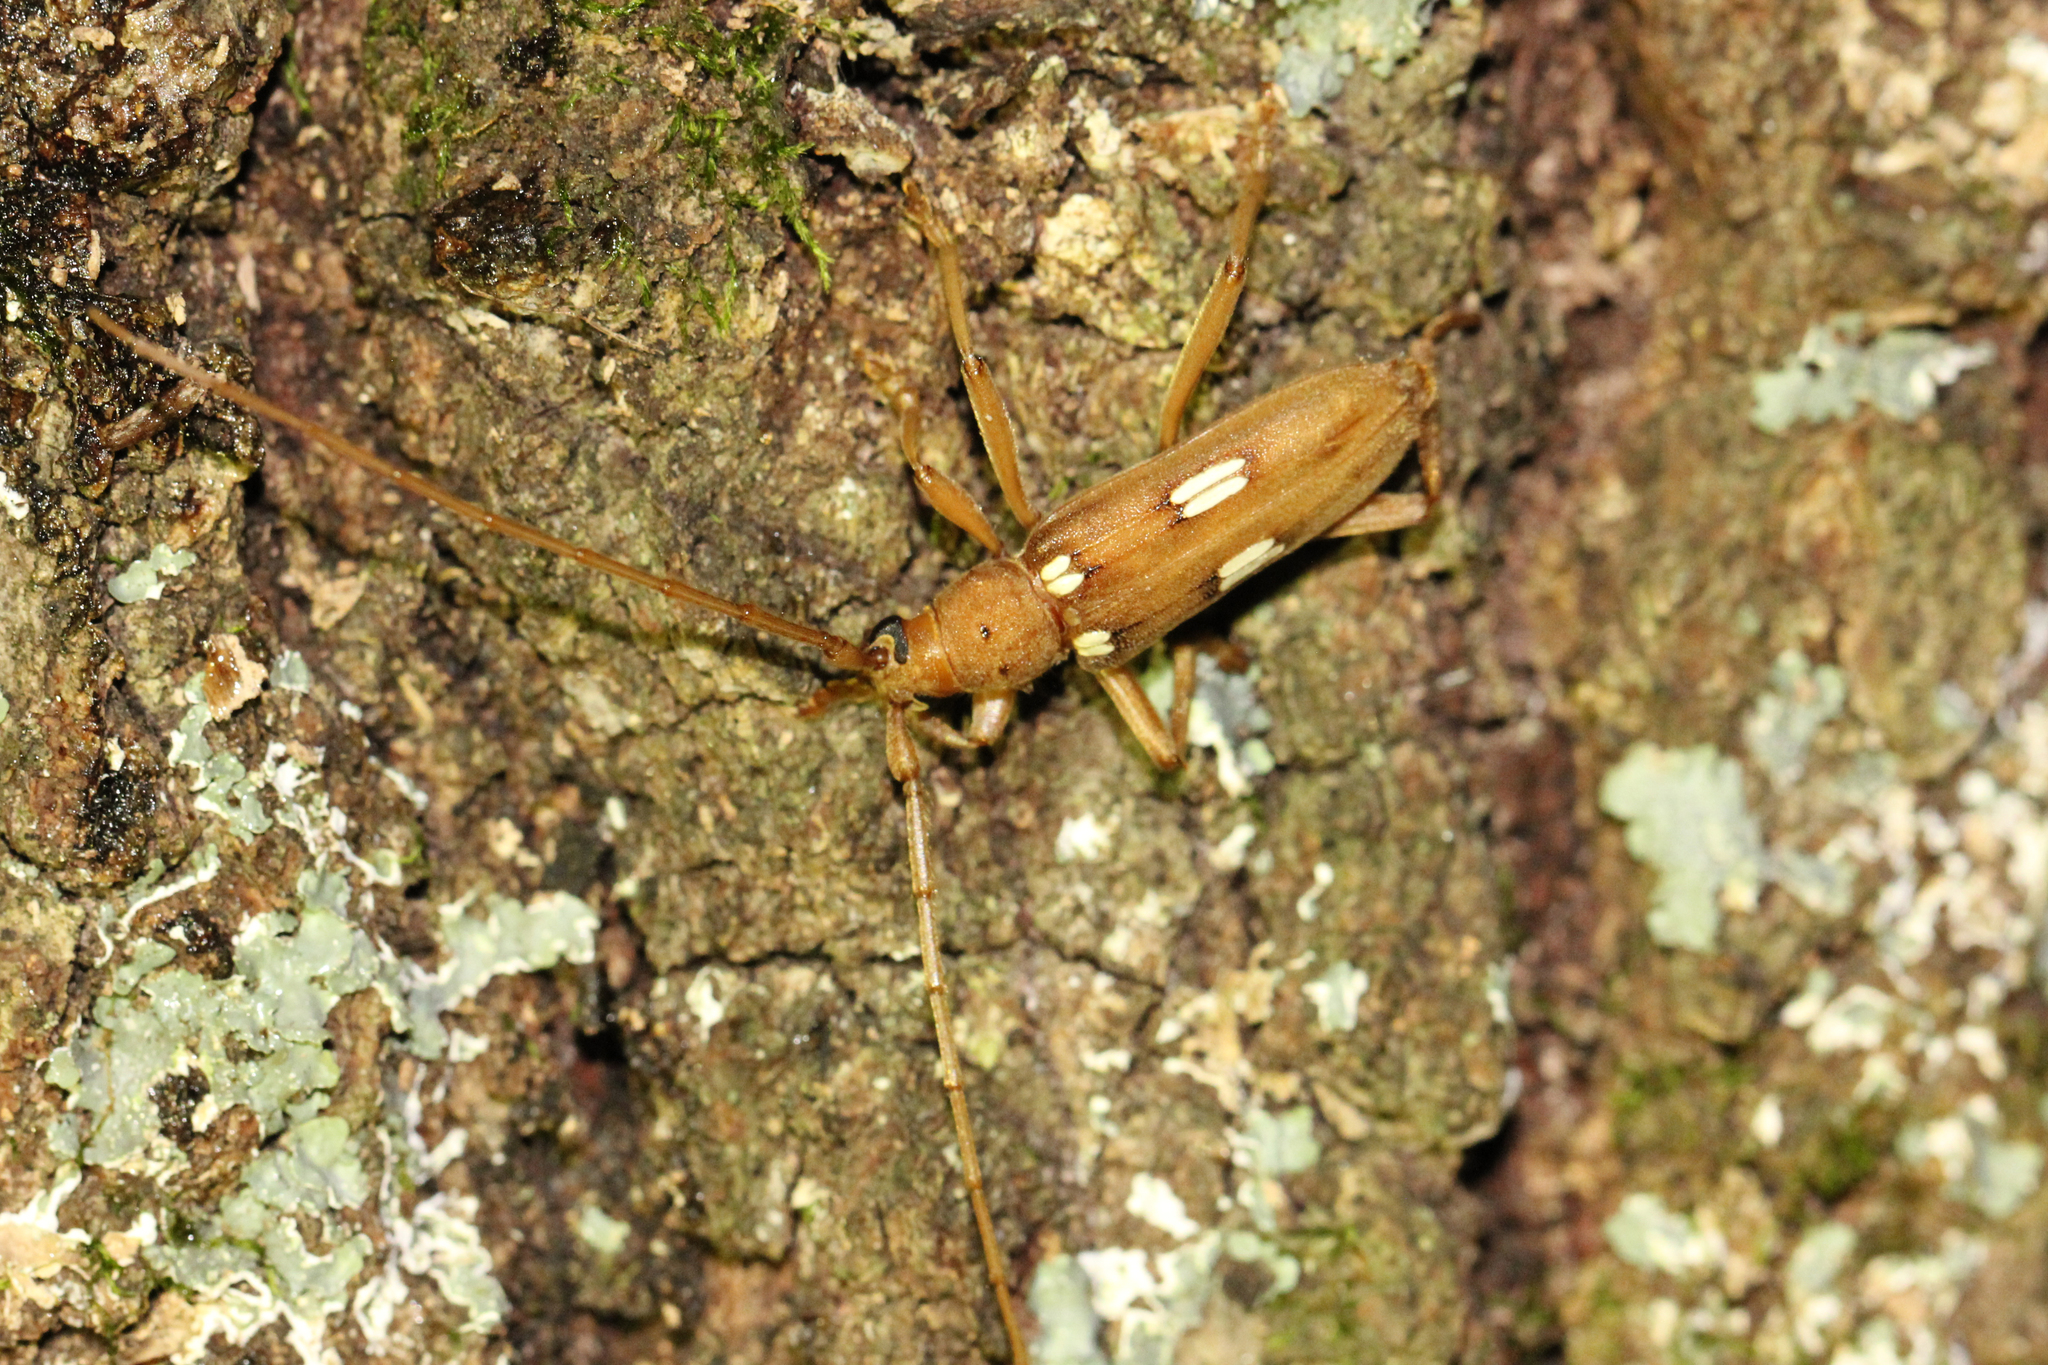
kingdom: Animalia
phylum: Arthropoda
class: Insecta
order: Coleoptera
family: Cerambycidae
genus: Eburia
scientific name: Eburia quadrigeminata
